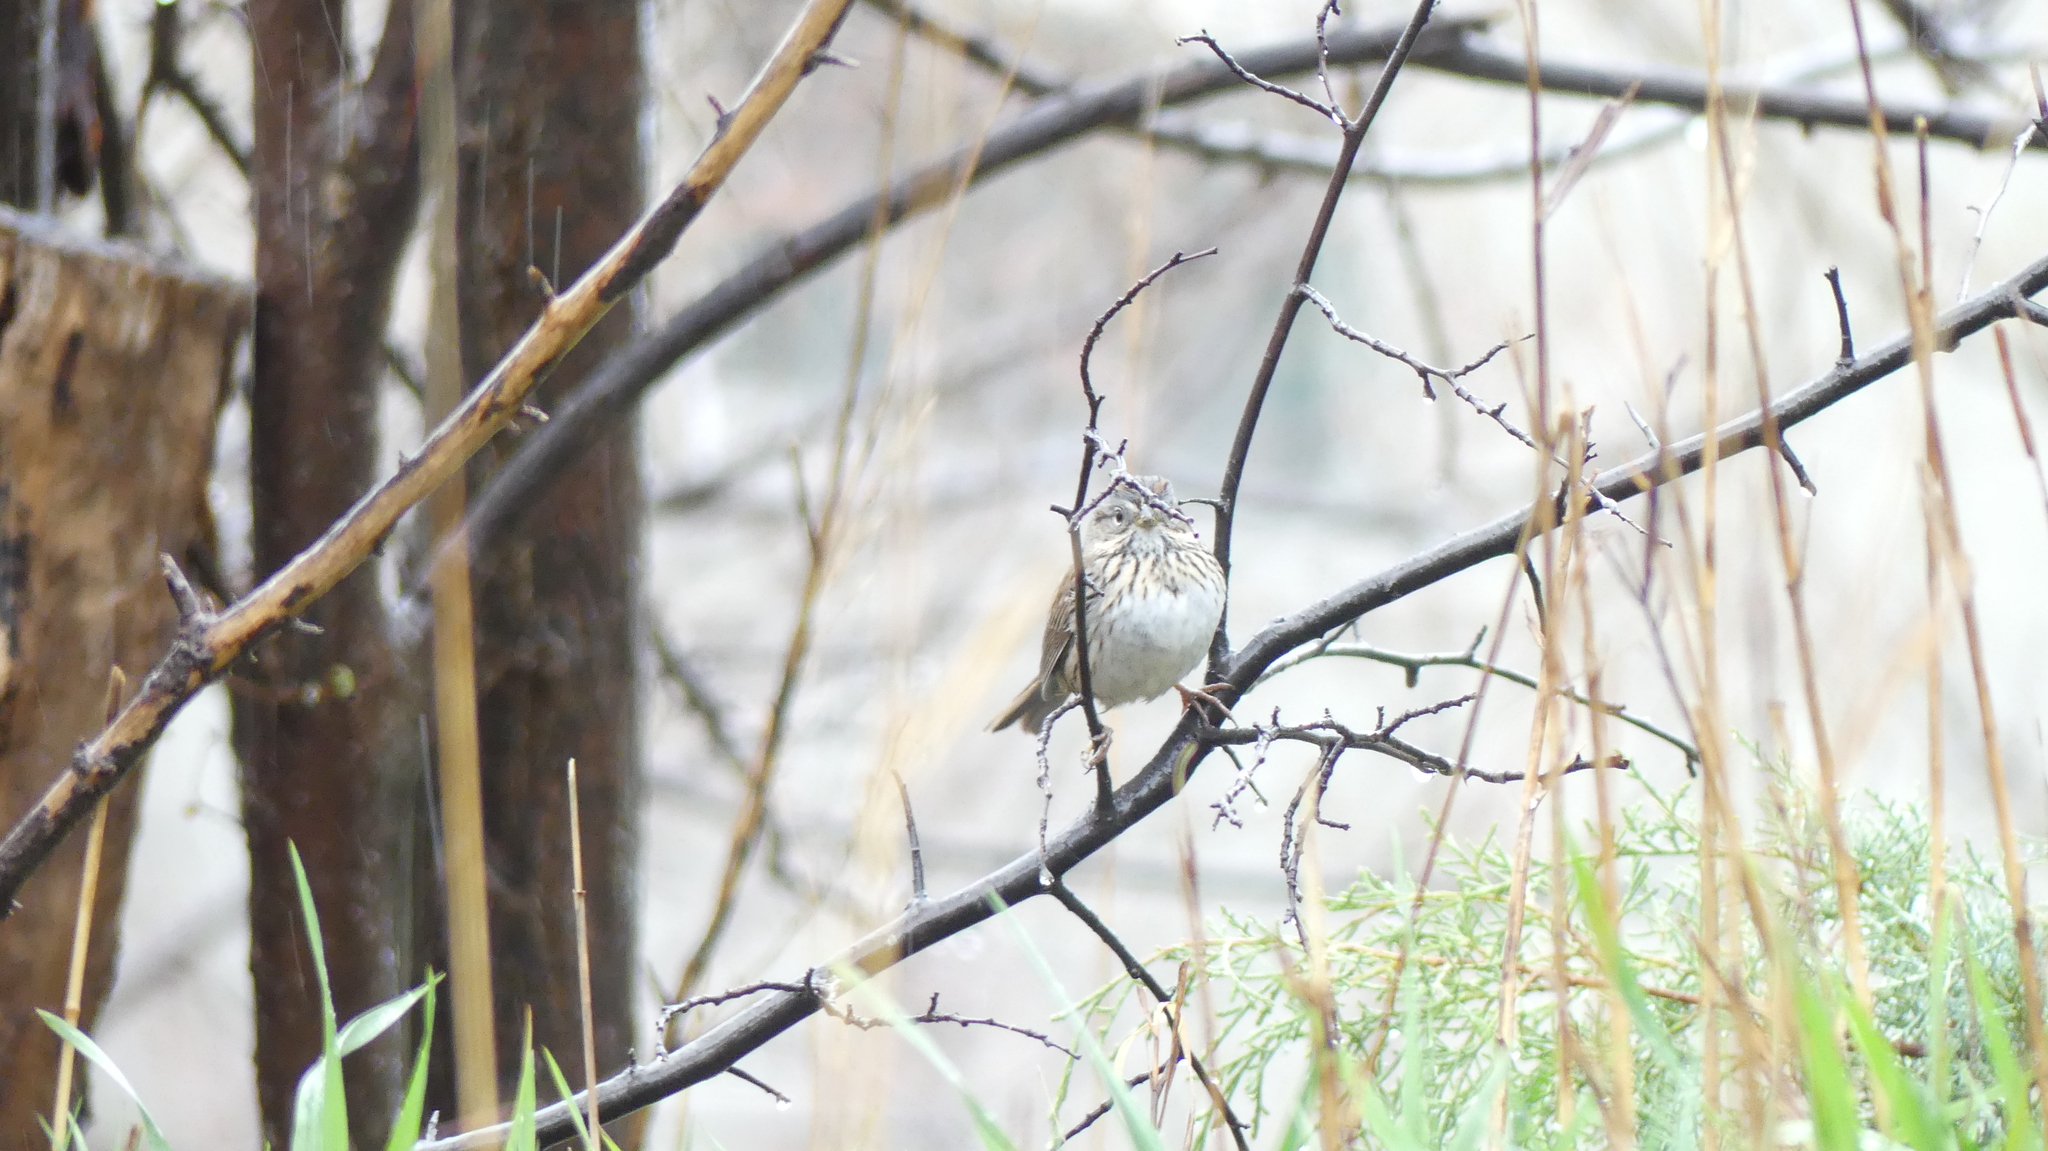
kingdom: Animalia
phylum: Chordata
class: Aves
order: Passeriformes
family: Passerellidae
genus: Melospiza
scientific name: Melospiza lincolnii
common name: Lincoln's sparrow
